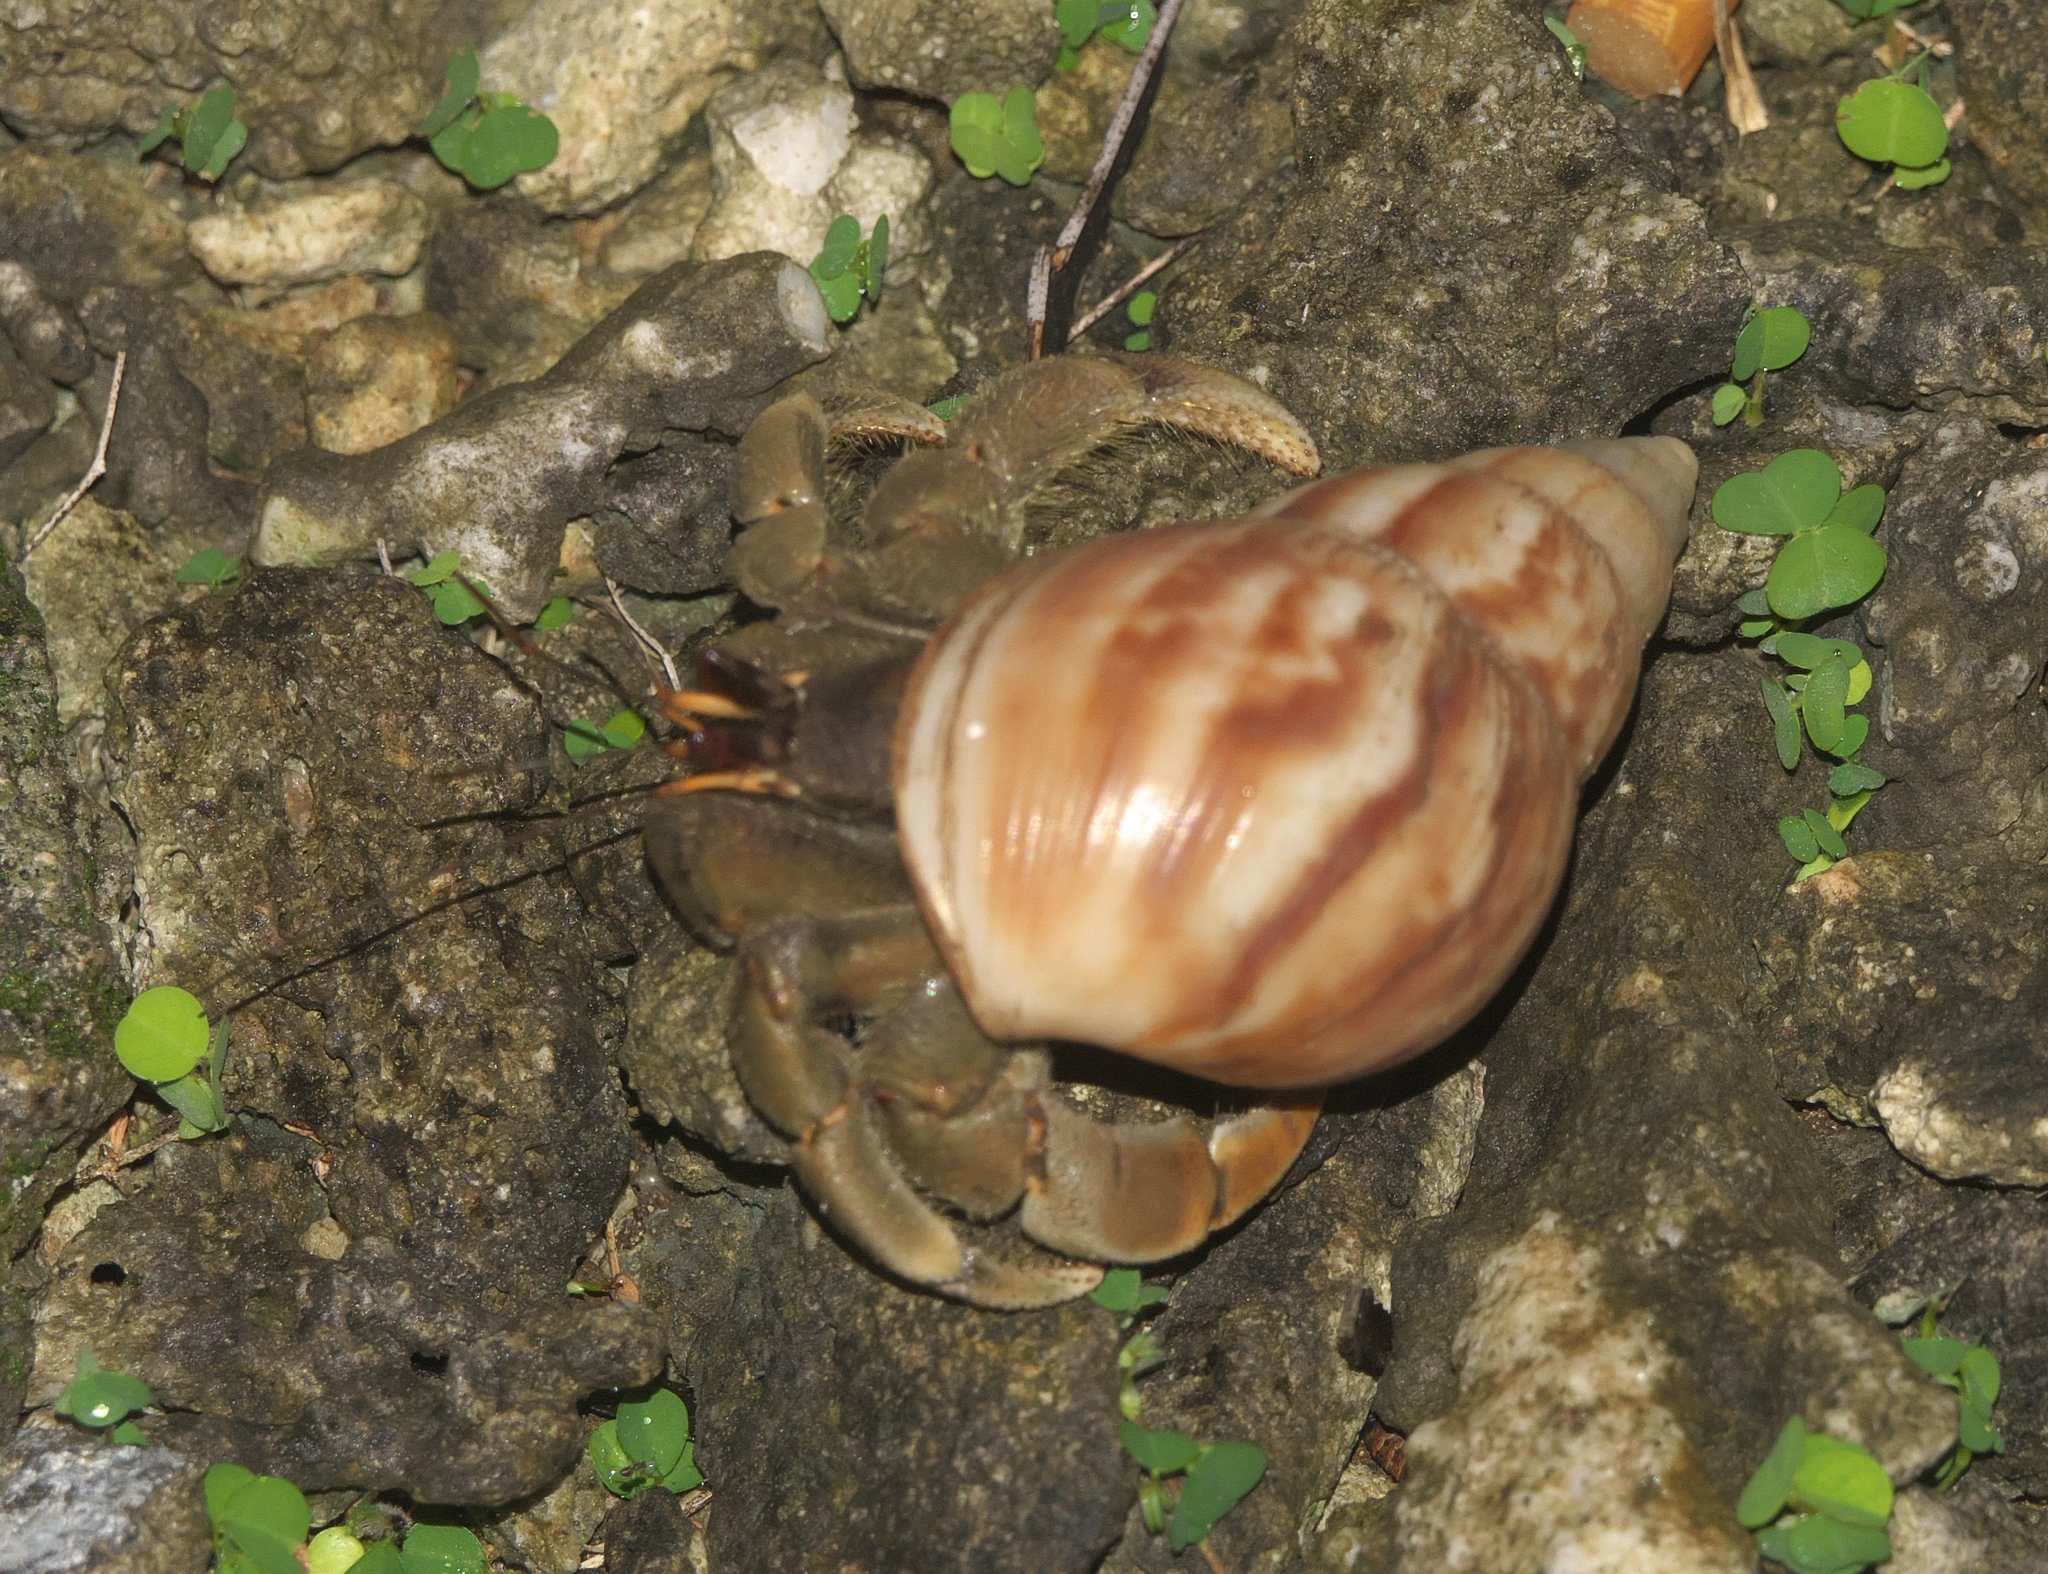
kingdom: Animalia
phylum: Arthropoda
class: Malacostraca
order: Decapoda
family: Coenobitidae
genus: Coenobita
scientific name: Coenobita rugosus
